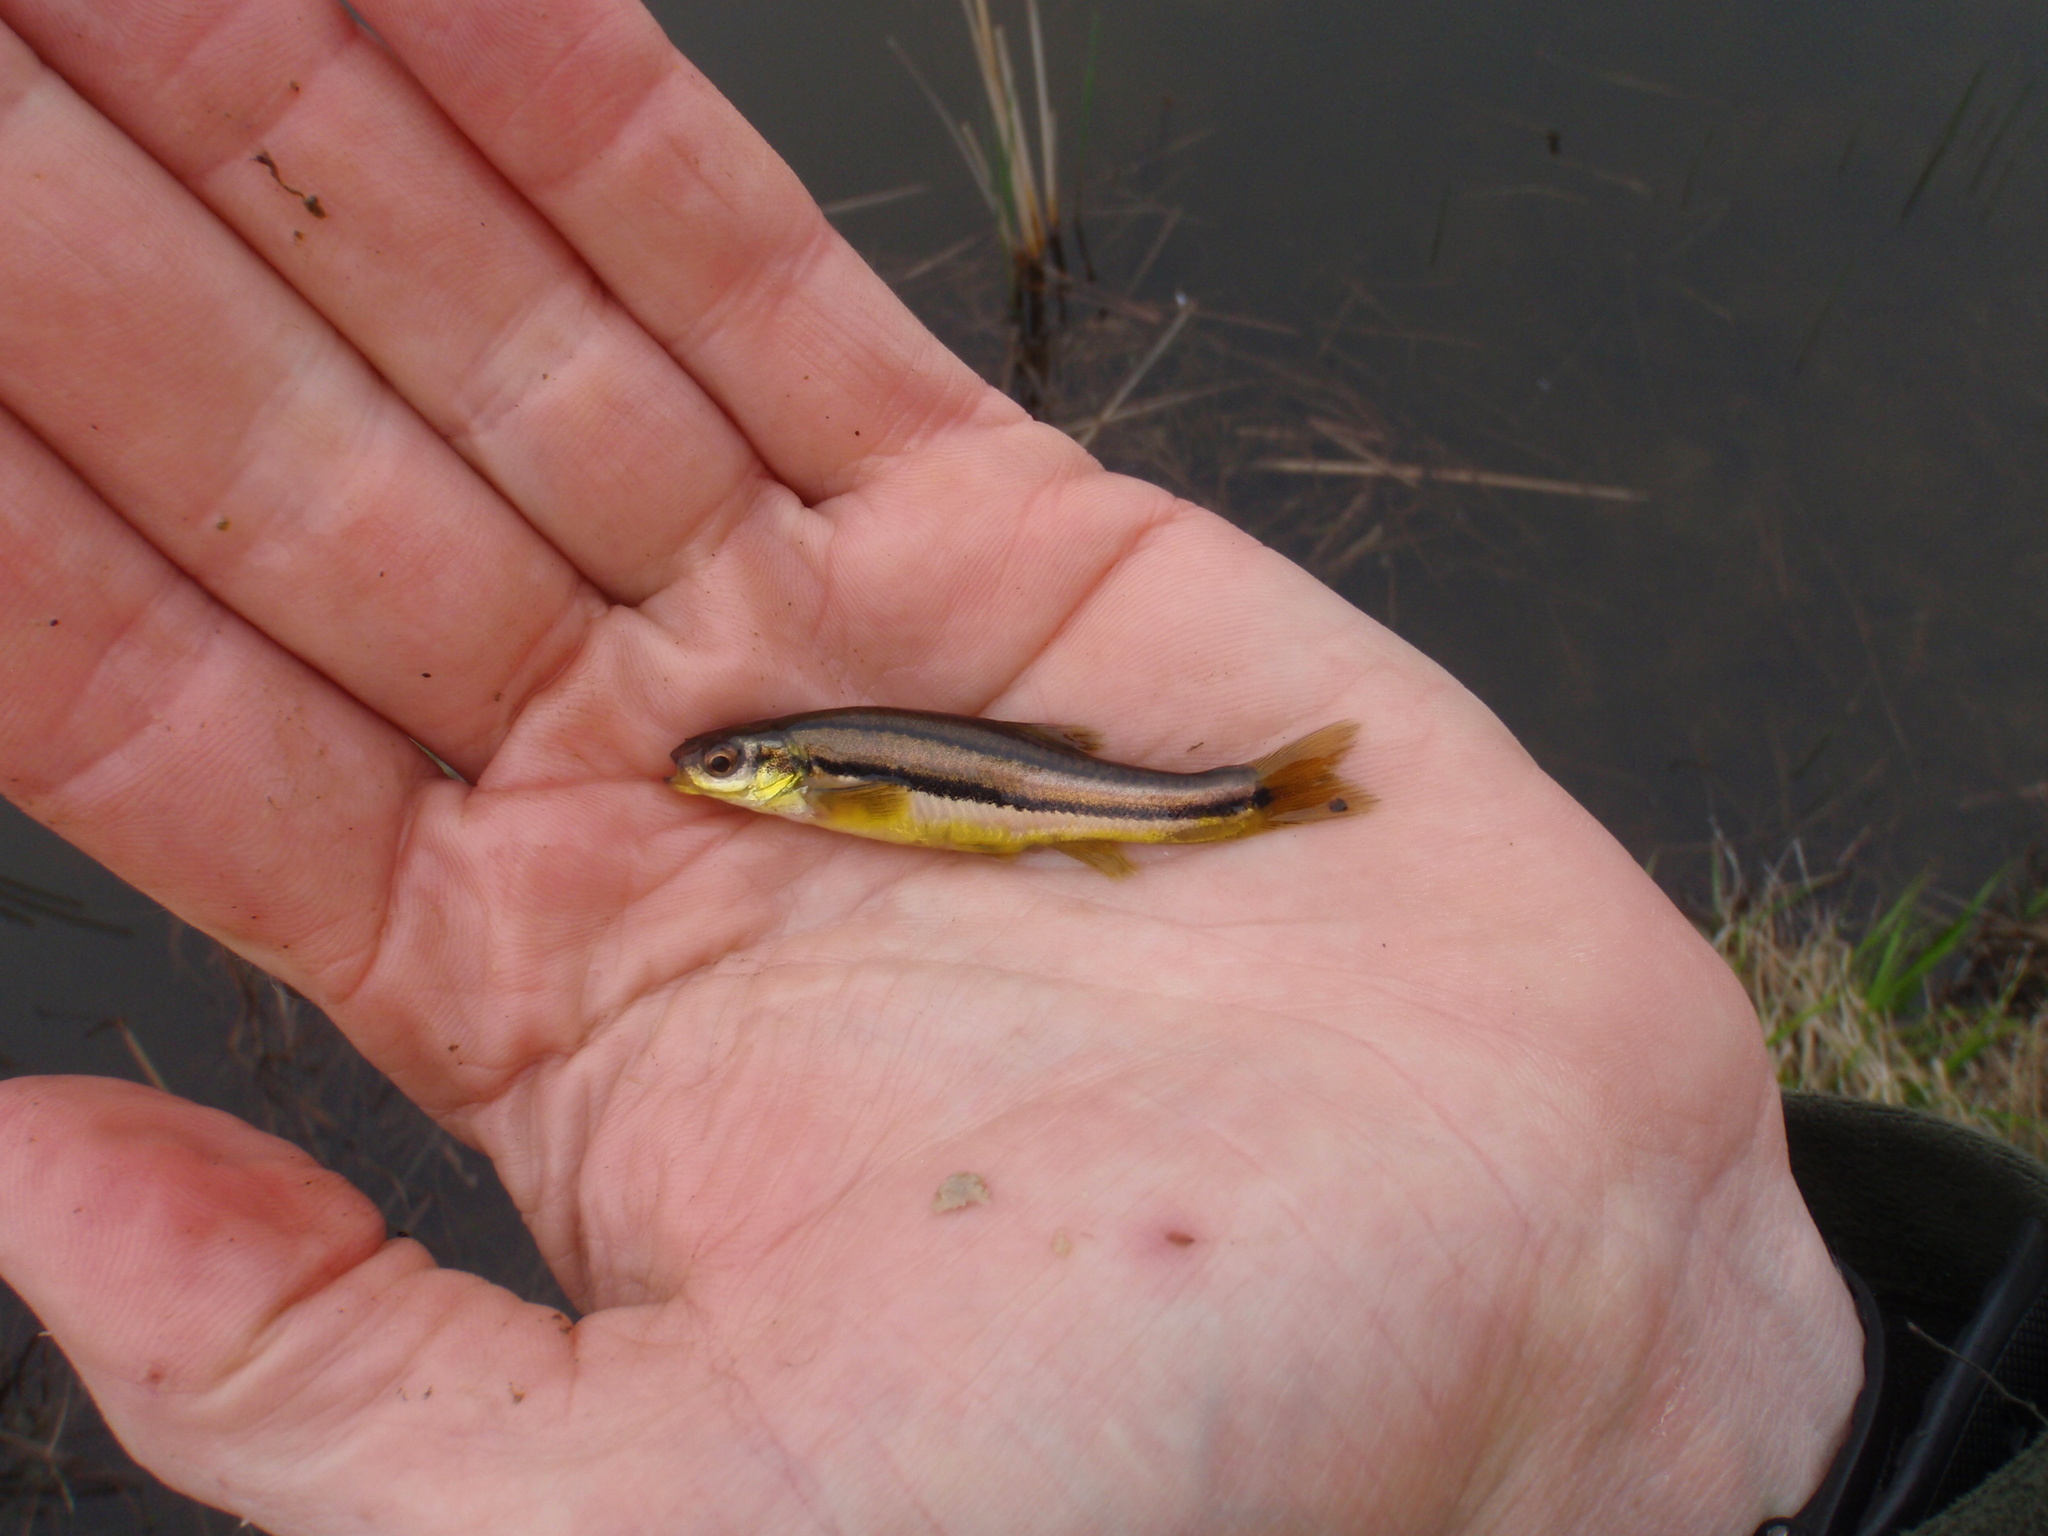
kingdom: Animalia
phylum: Chordata
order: Cypriniformes
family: Cyprinidae
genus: Chrosomus
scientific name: Chrosomus eos
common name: Northern redbelly dace
